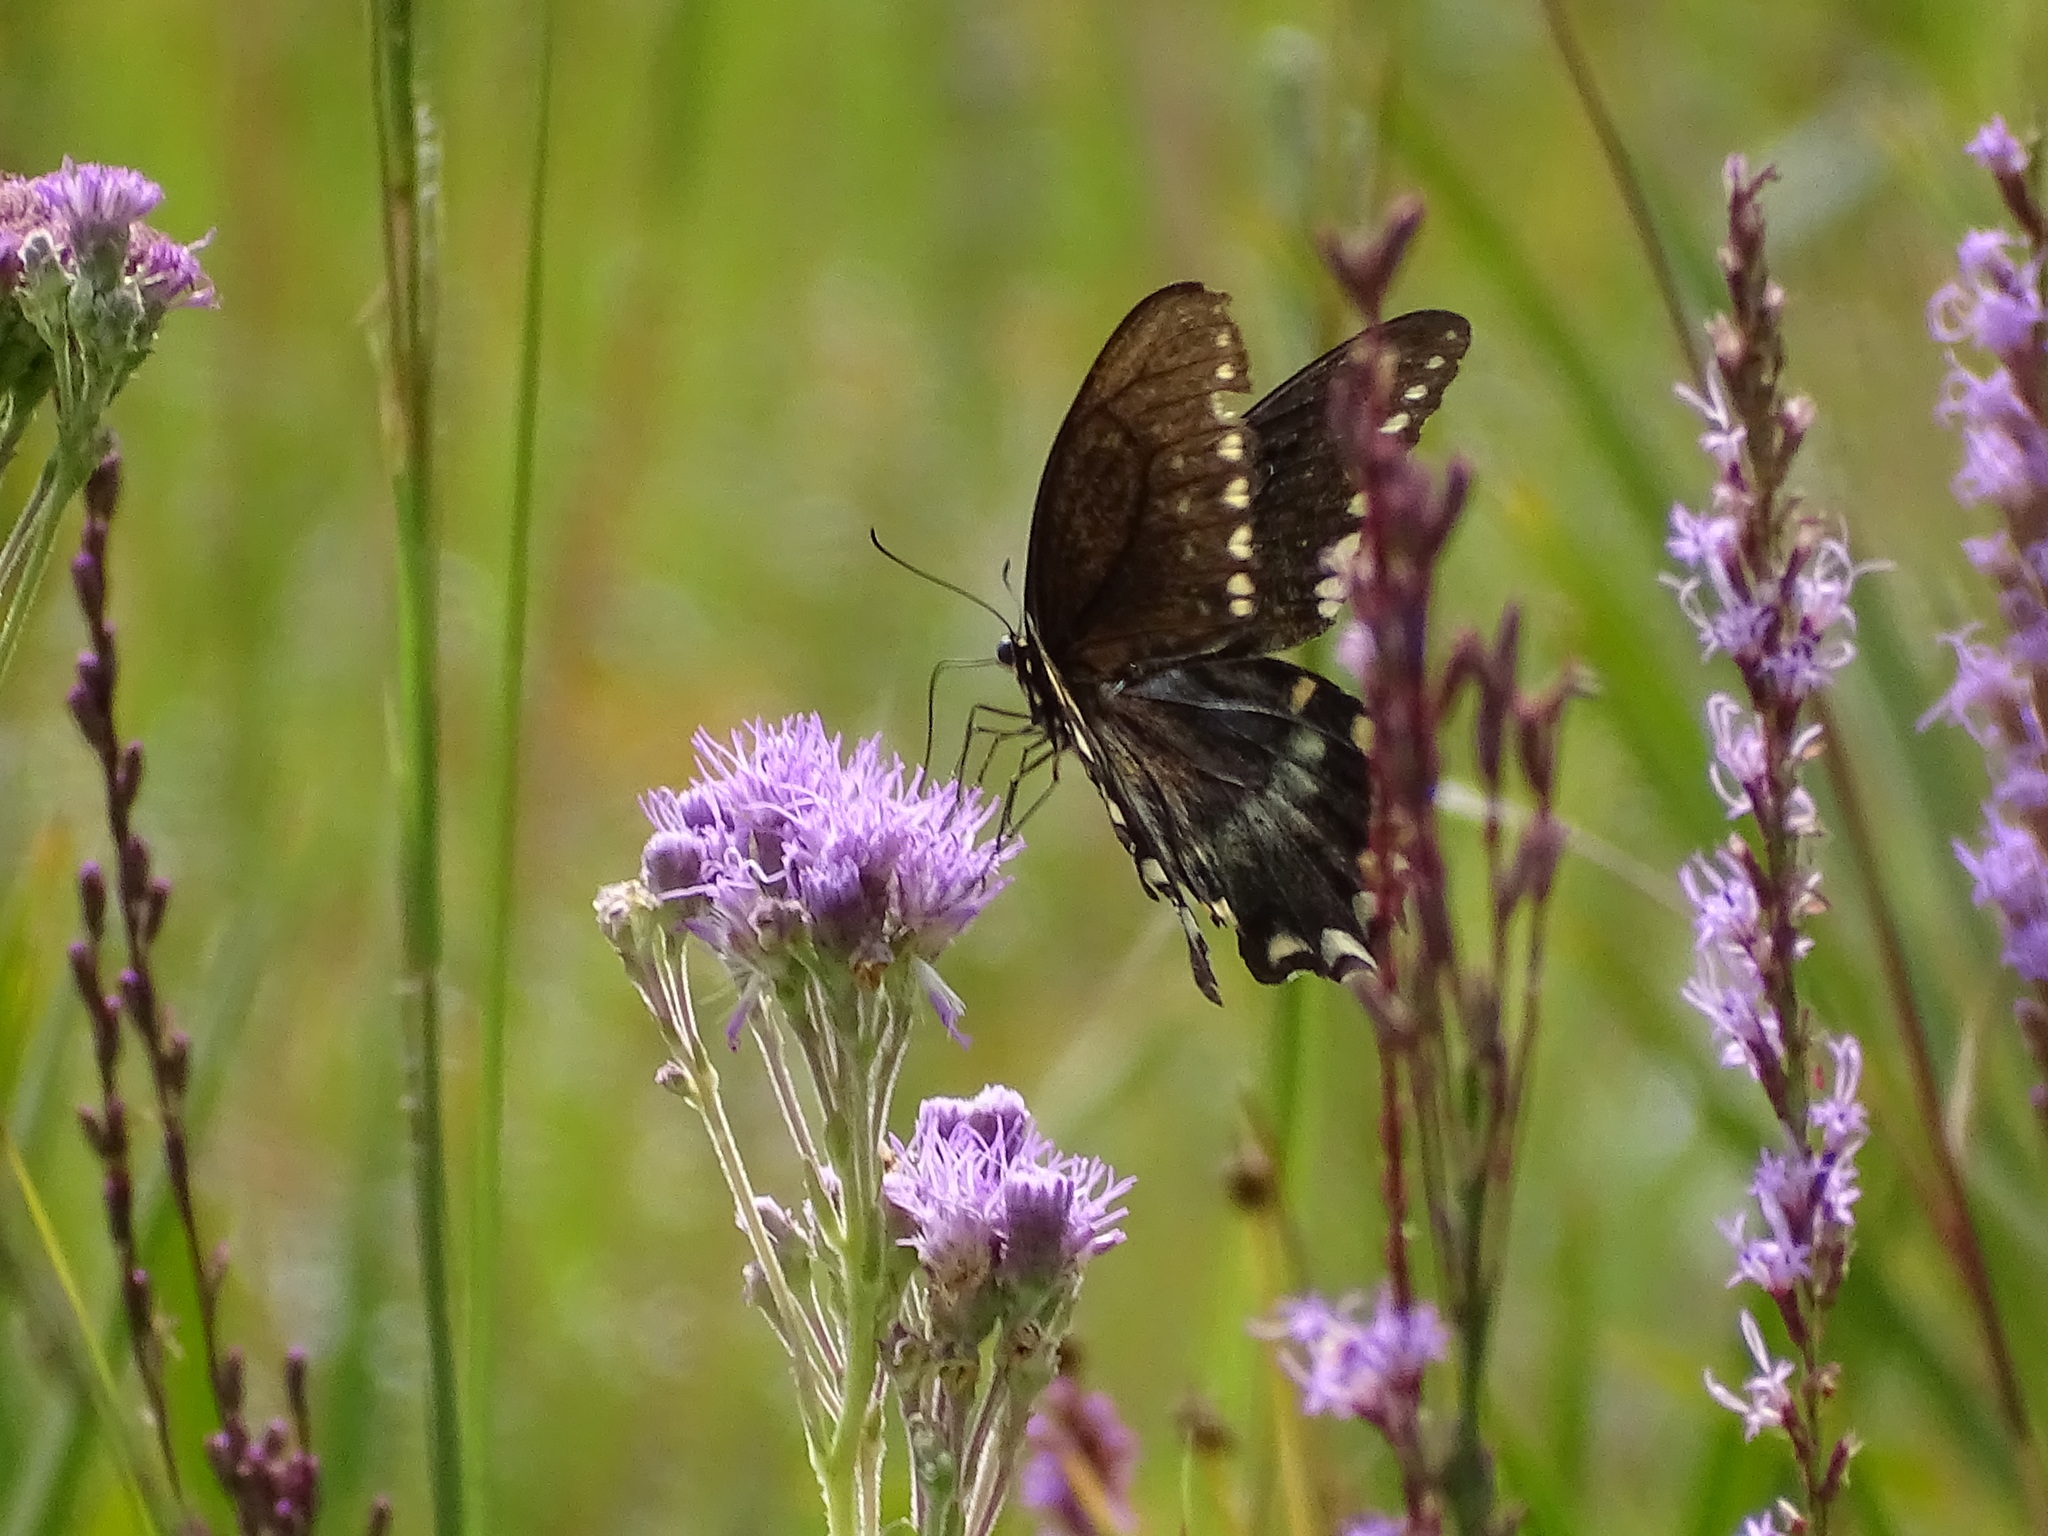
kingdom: Animalia
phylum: Arthropoda
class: Insecta
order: Lepidoptera
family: Papilionidae
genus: Papilio
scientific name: Papilio troilus
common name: Spicebush swallowtail
